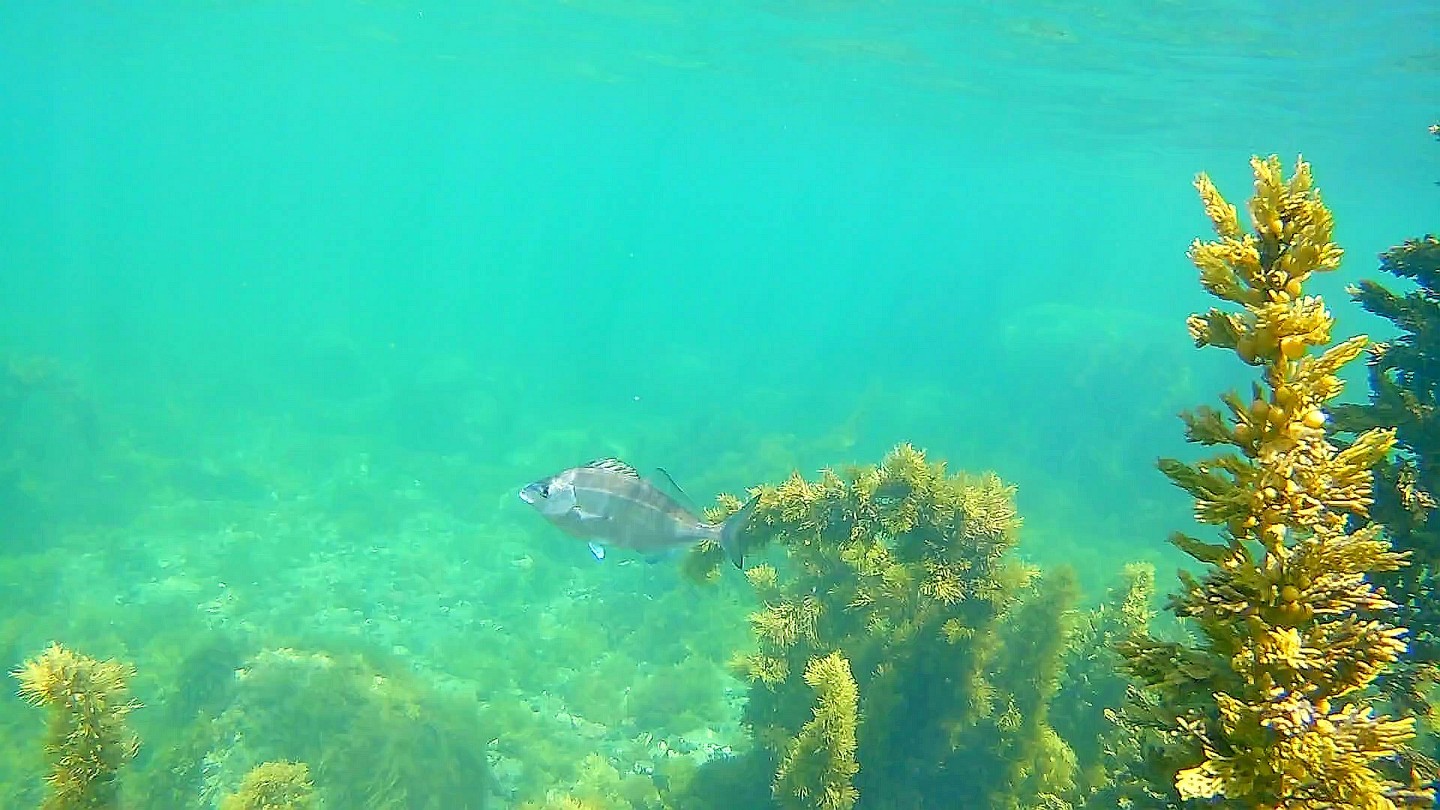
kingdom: Animalia
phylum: Chordata
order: Perciformes
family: Latridae
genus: Latridopsis
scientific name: Latridopsis ciliaris
